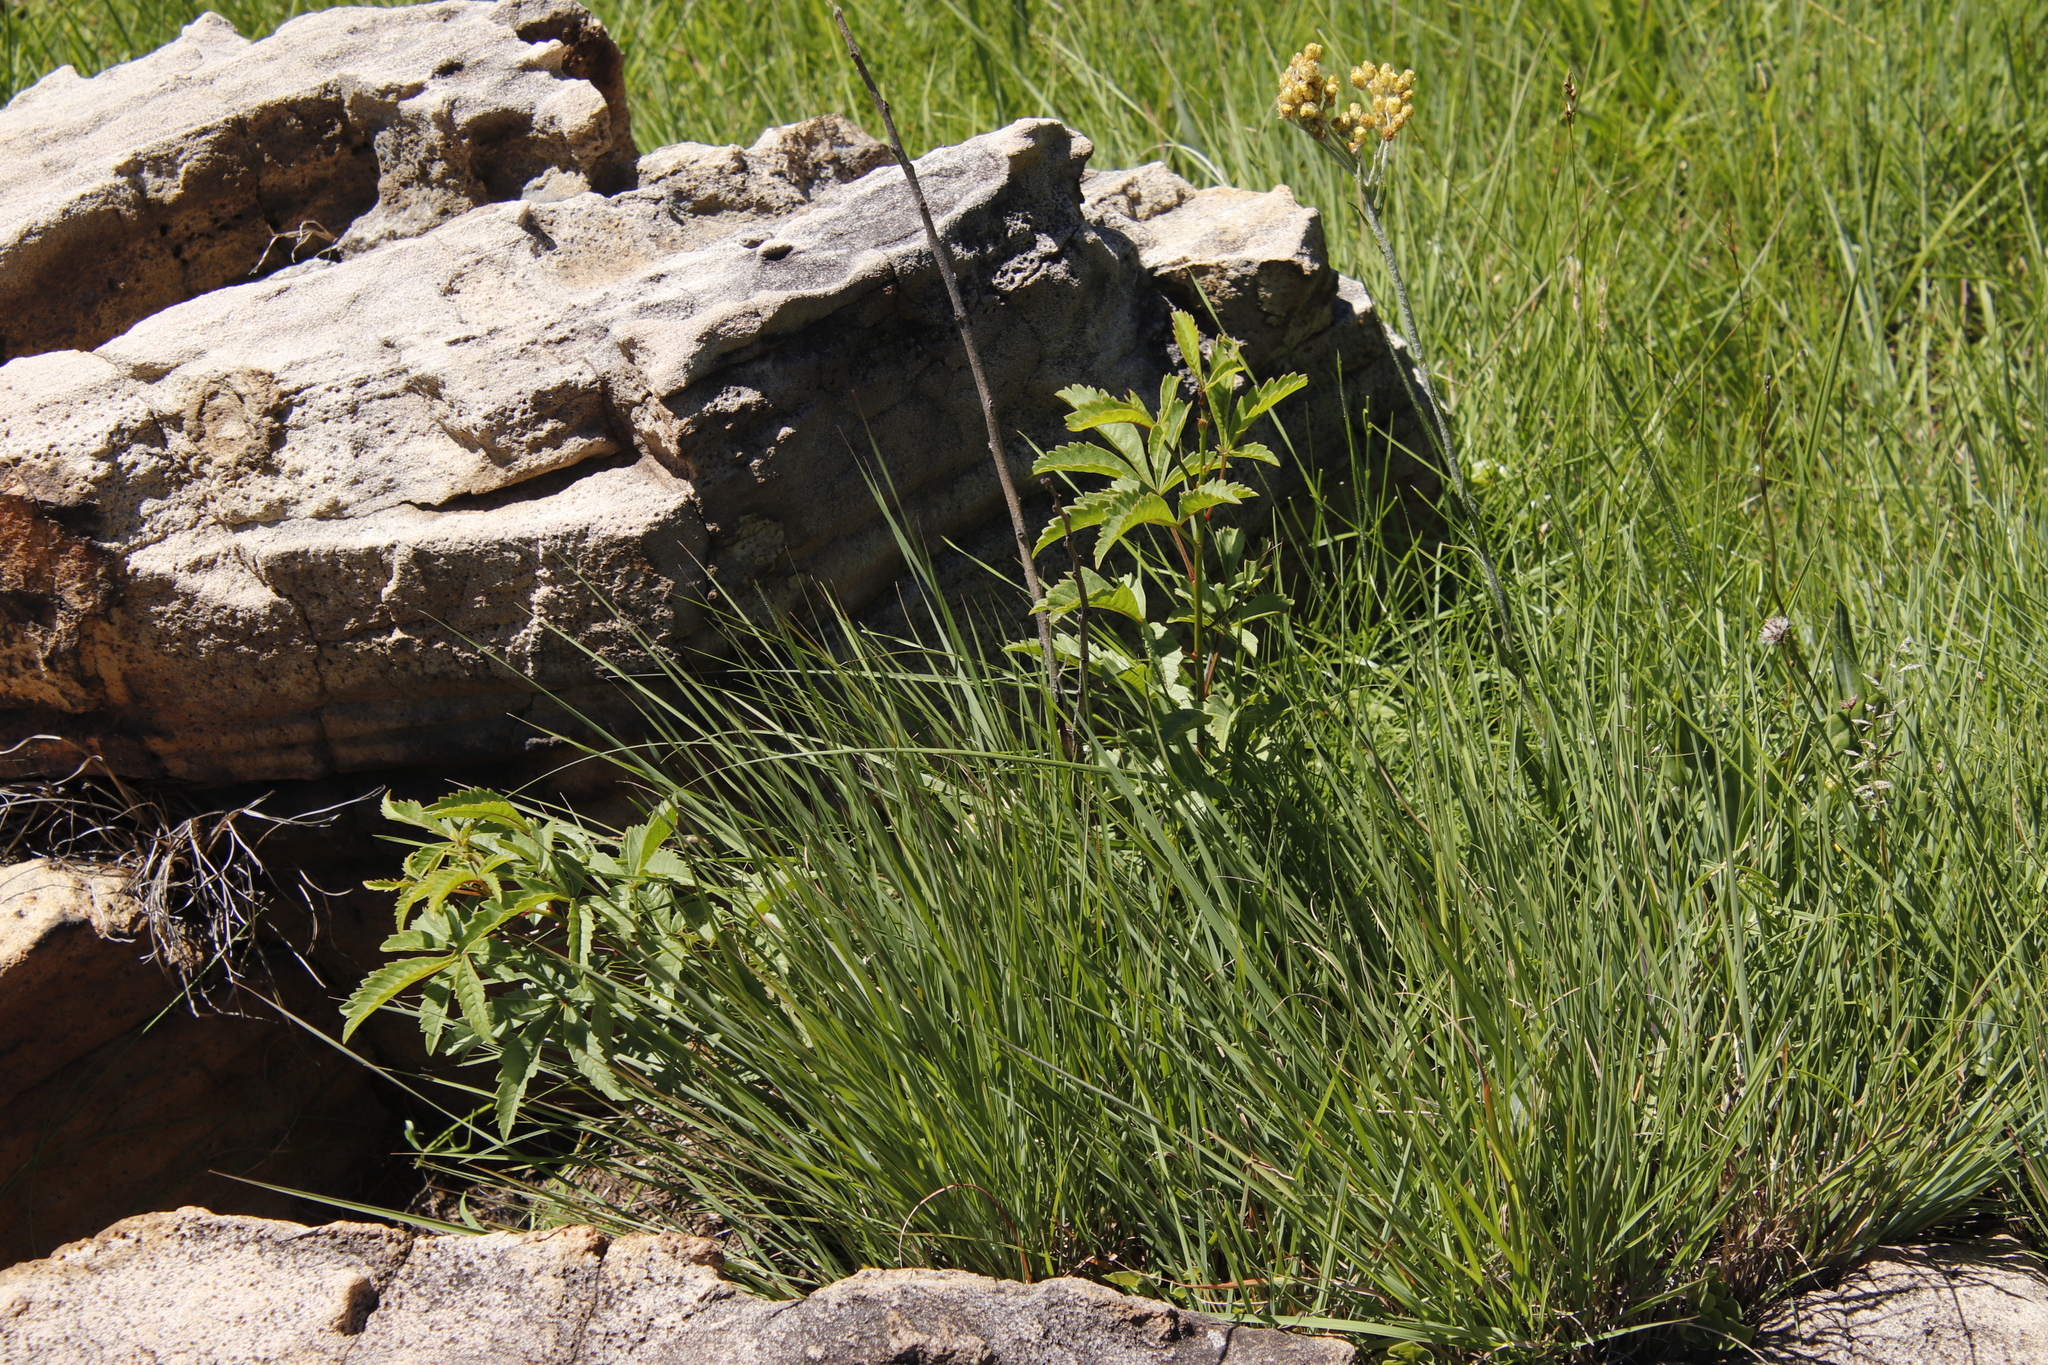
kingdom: Plantae
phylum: Tracheophyta
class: Magnoliopsida
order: Sapindales
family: Anacardiaceae
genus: Searsia
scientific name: Searsia montana
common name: Drakensberg karee
